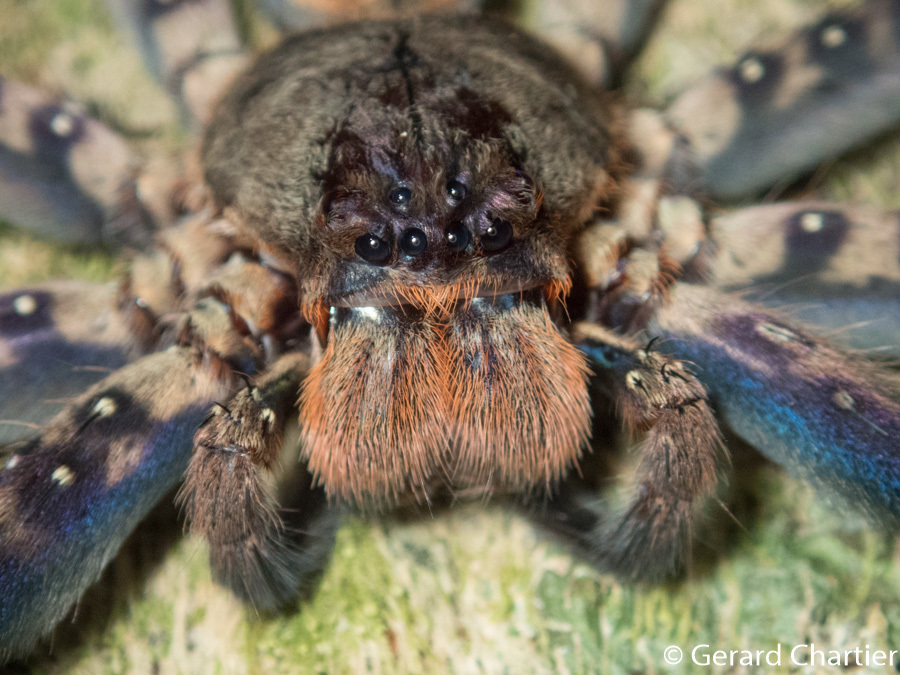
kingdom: Animalia
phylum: Arthropoda
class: Arachnida
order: Araneae
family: Sparassidae
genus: Heteropoda
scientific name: Heteropoda lunula
